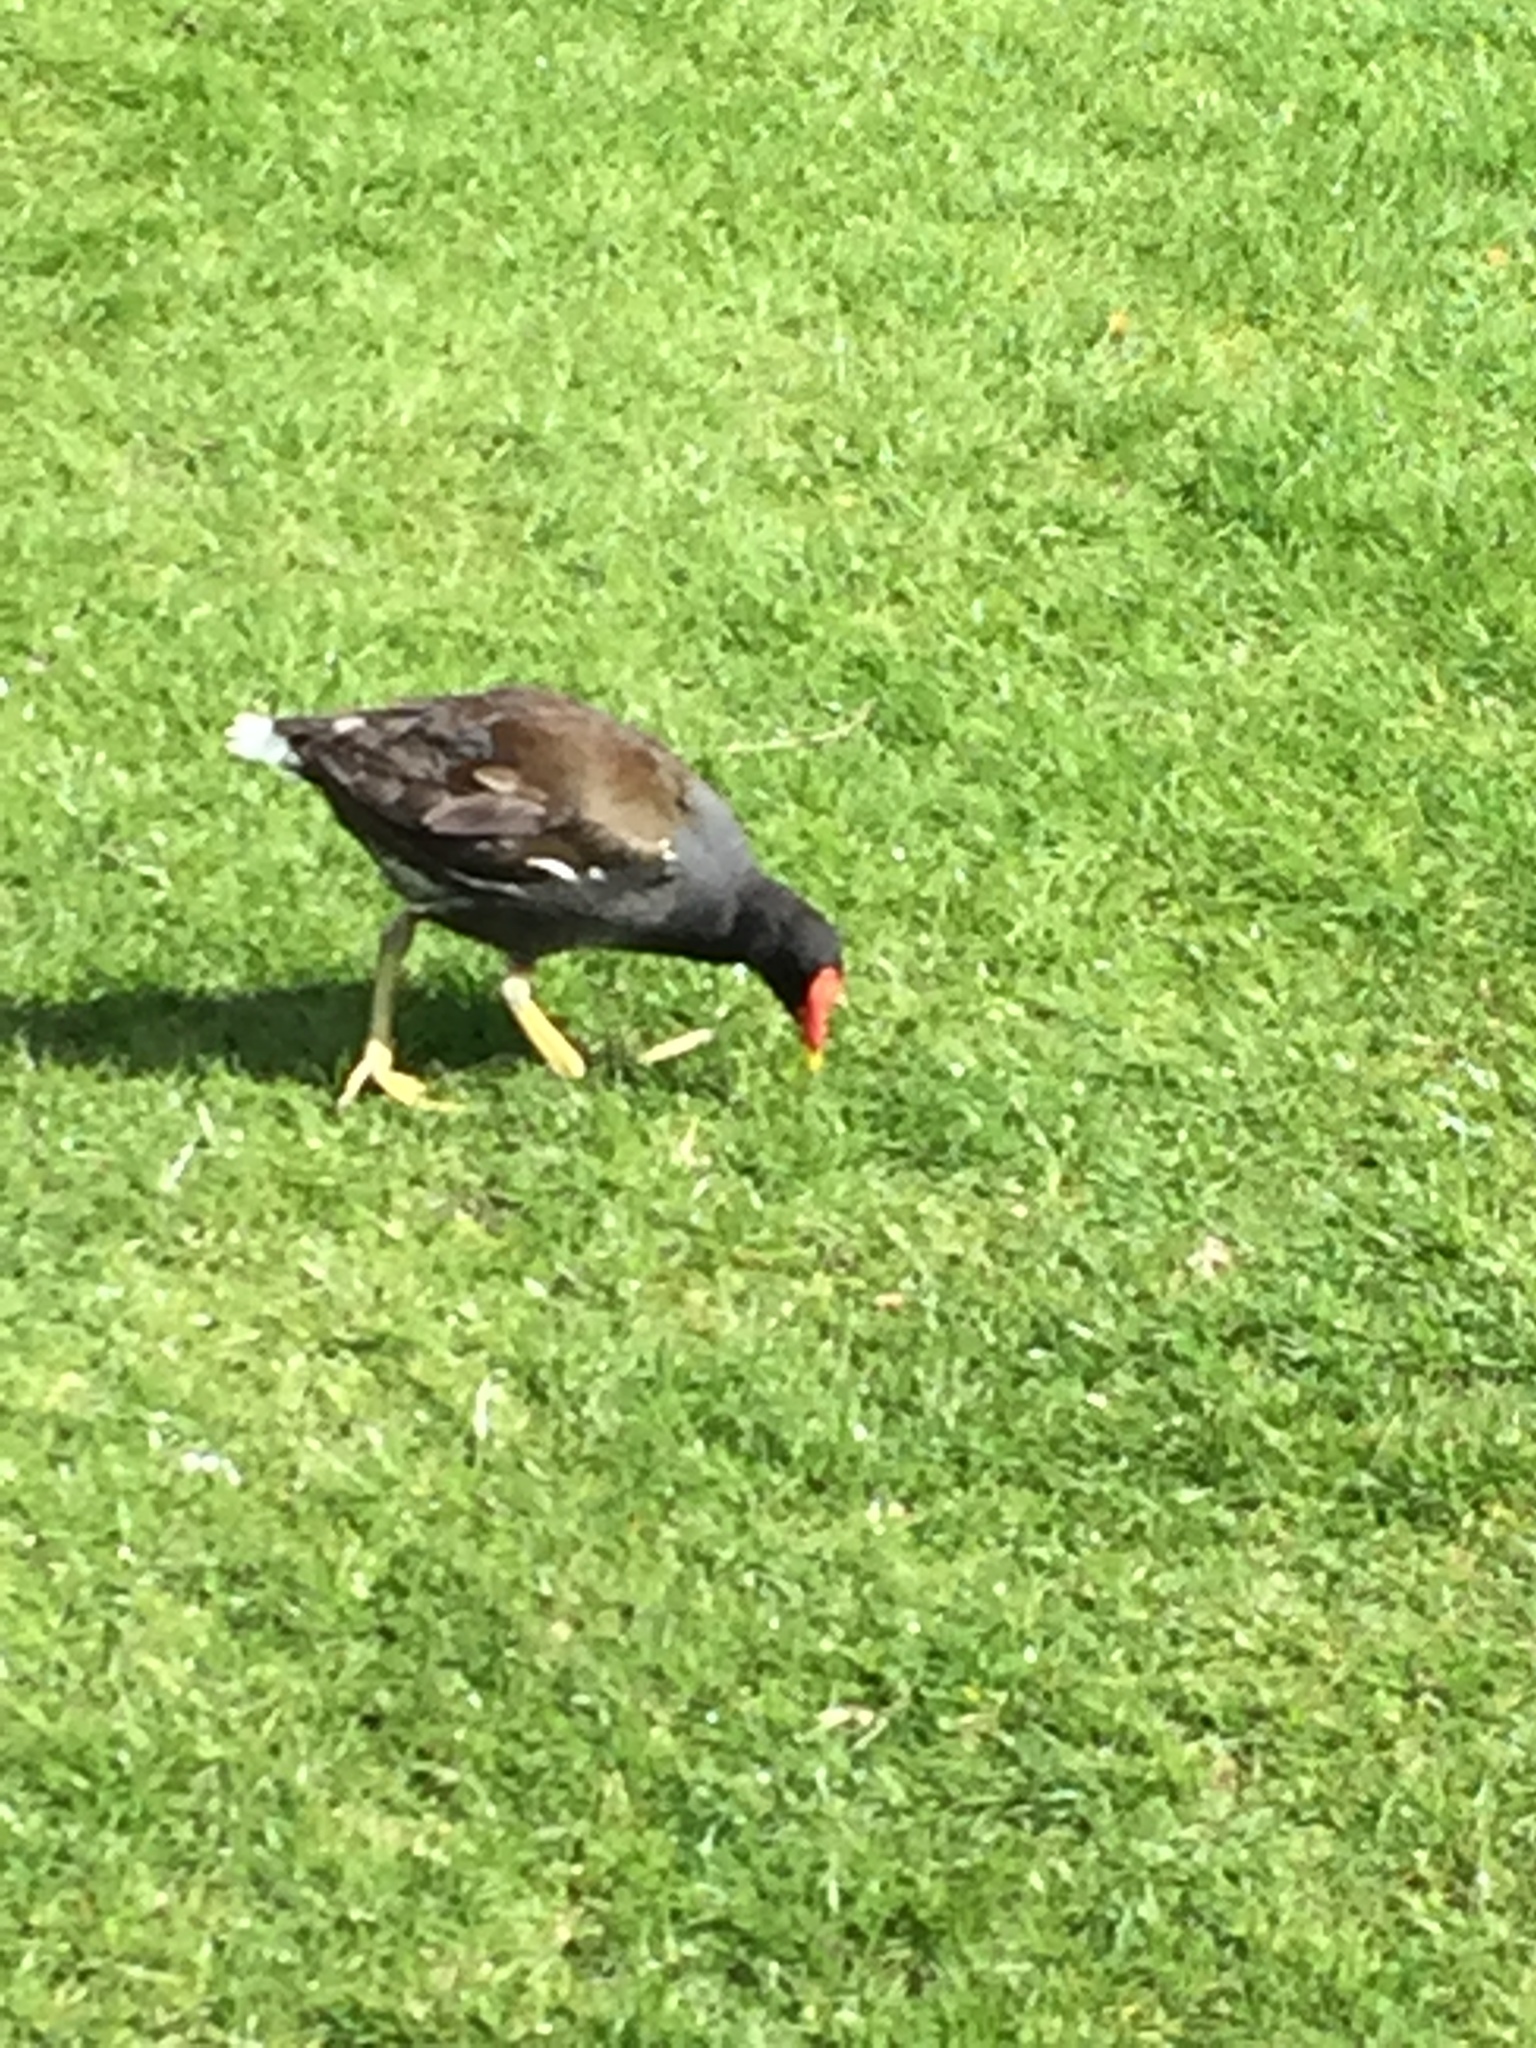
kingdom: Animalia
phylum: Chordata
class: Aves
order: Gruiformes
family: Rallidae
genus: Gallinula
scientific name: Gallinula chloropus
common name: Common moorhen
